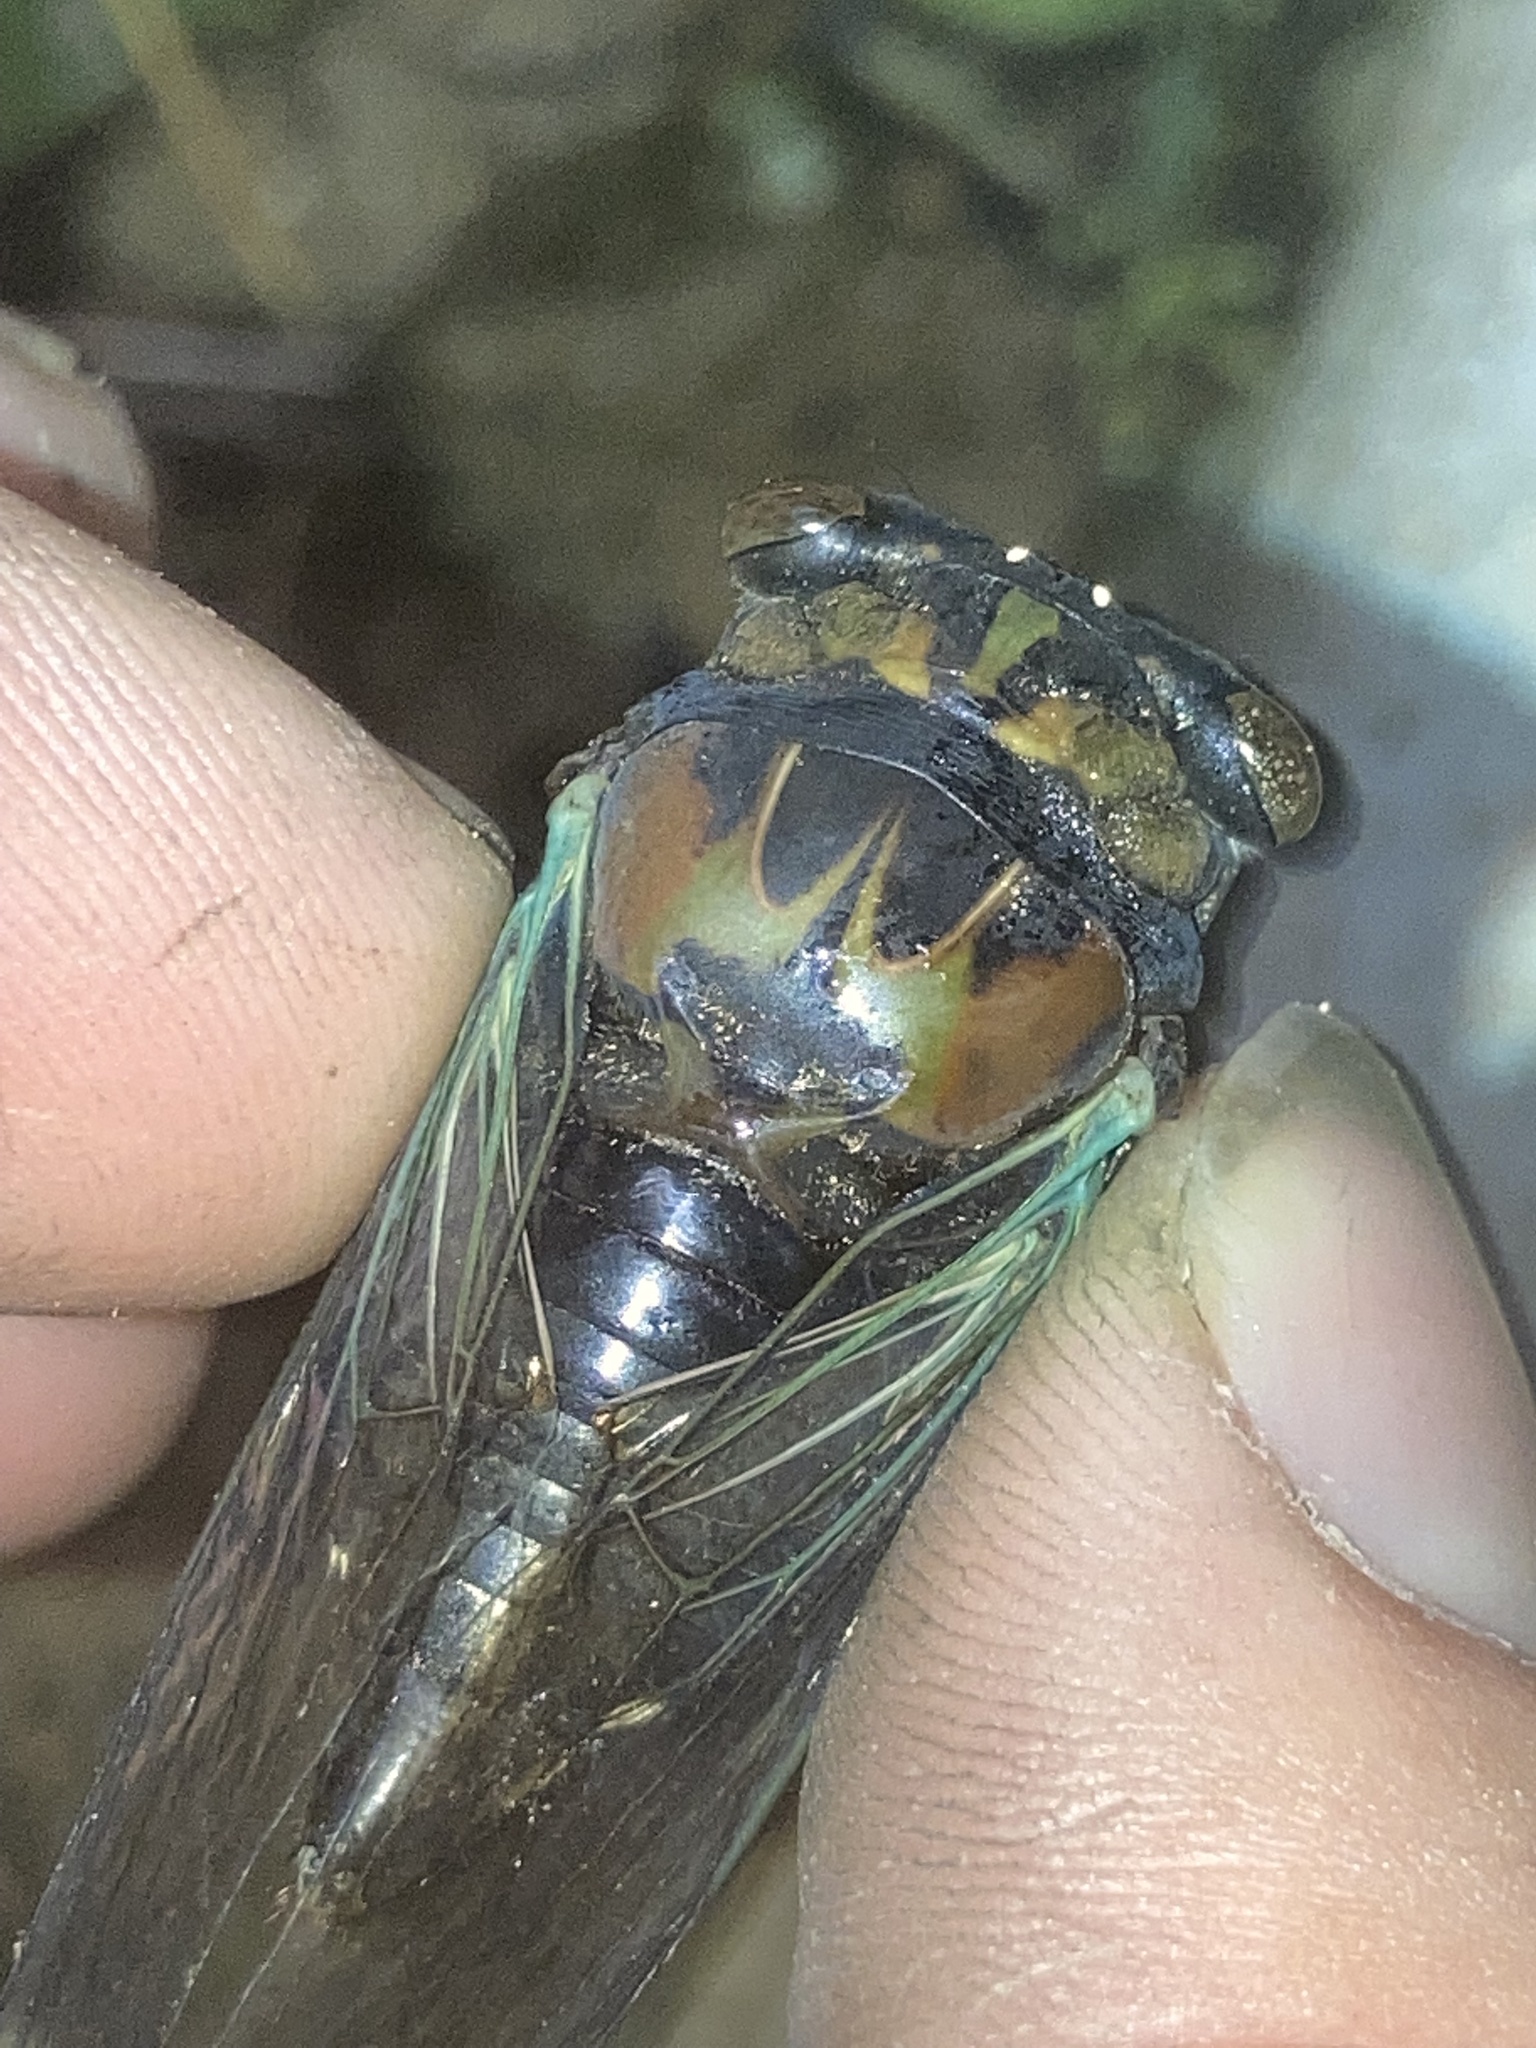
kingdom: Animalia
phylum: Arthropoda
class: Insecta
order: Hemiptera
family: Cicadidae
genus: Neotibicen
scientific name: Neotibicen lyricen
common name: Lyric cicada
